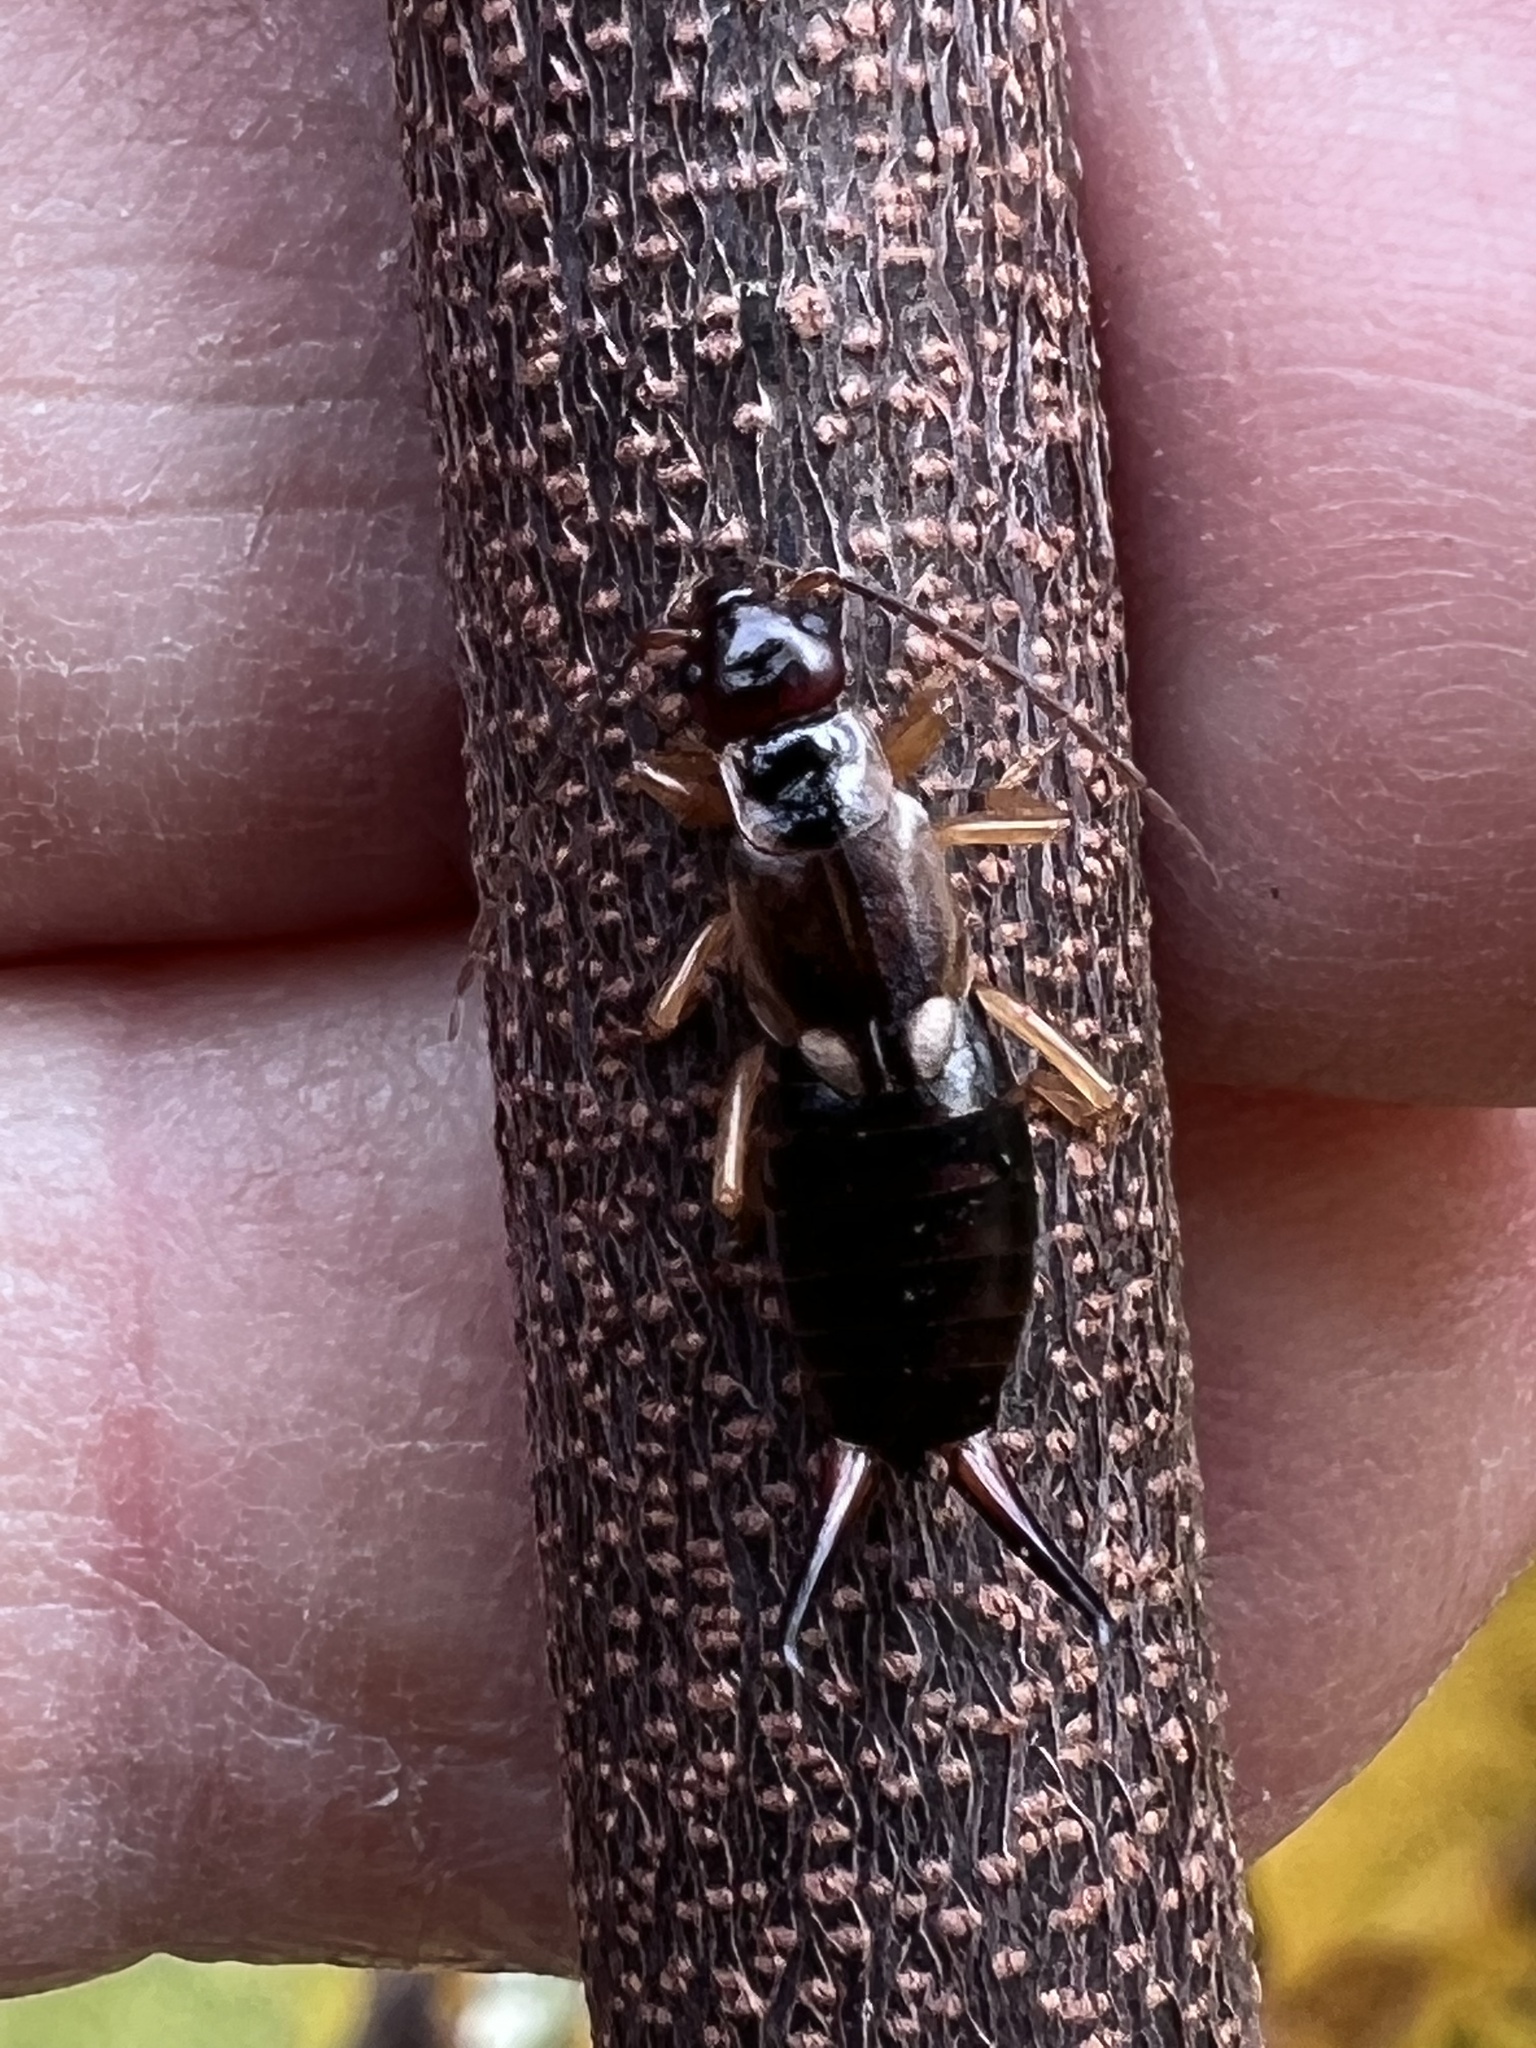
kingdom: Animalia
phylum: Arthropoda
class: Insecta
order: Dermaptera
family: Forficulidae
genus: Forficula
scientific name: Forficula
